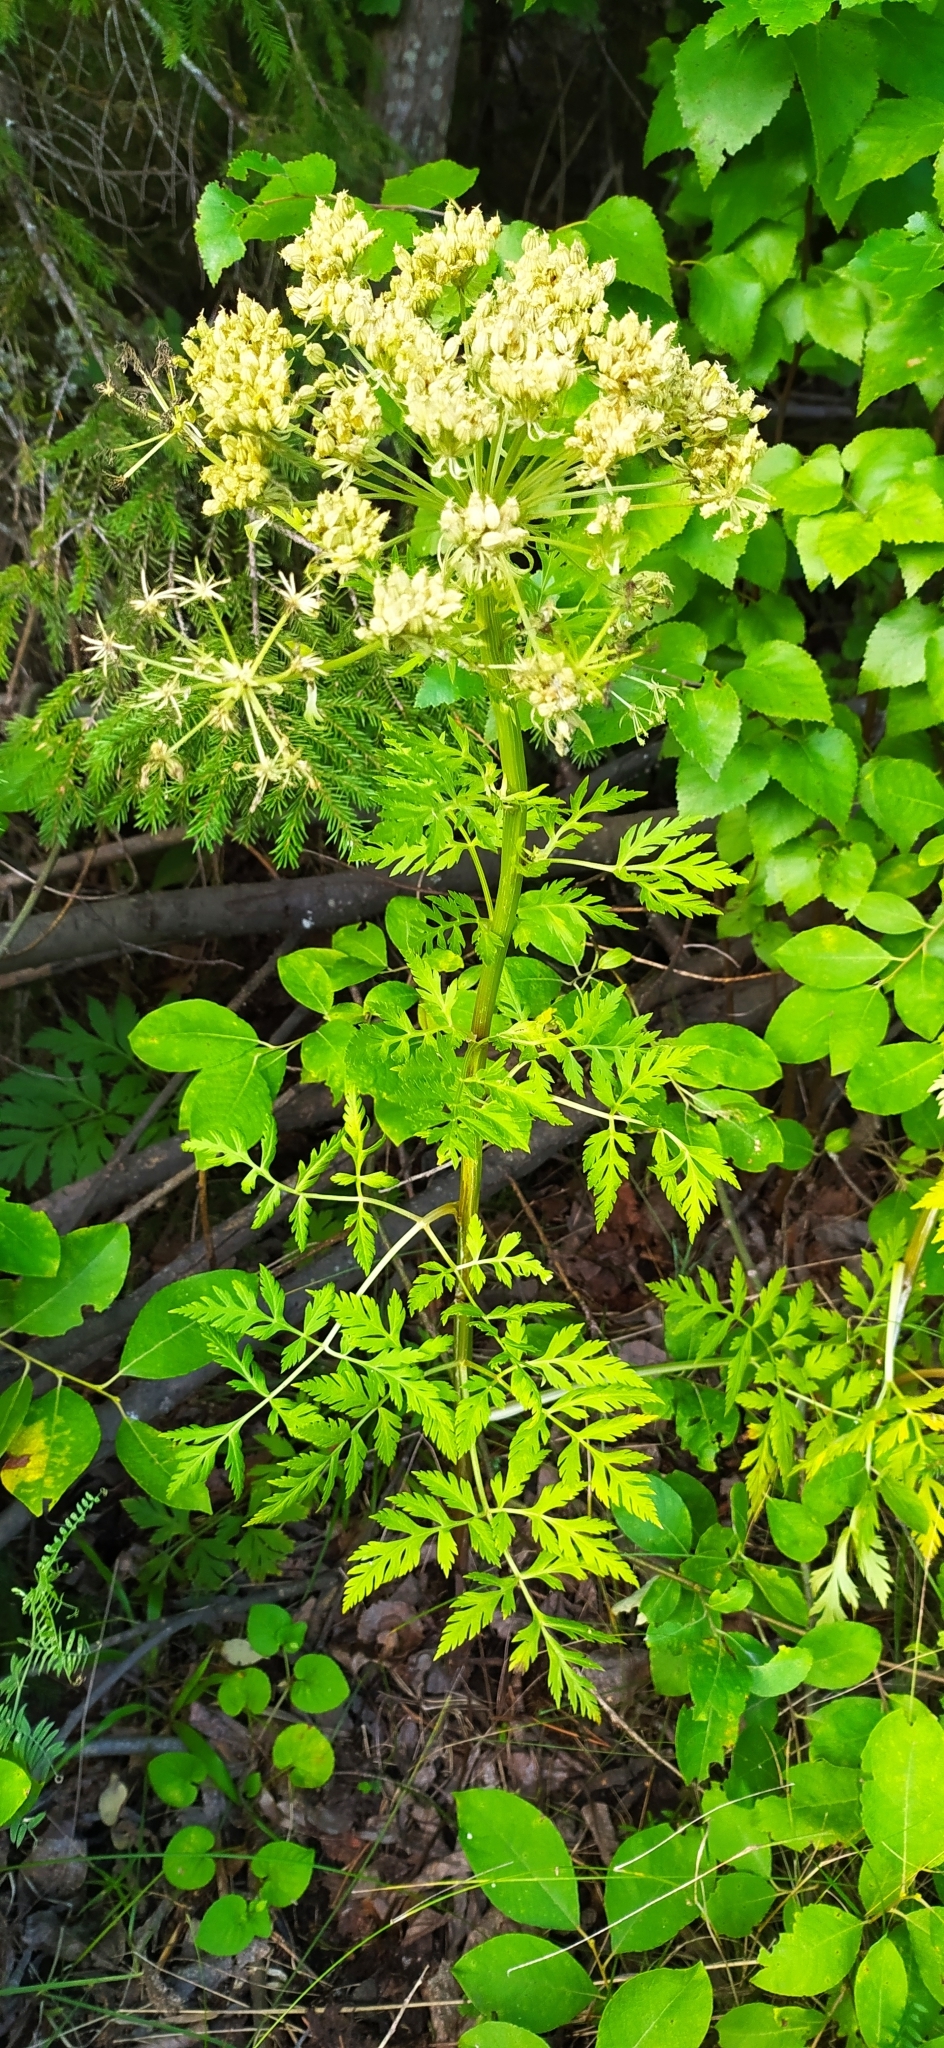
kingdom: Plantae
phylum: Tracheophyta
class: Magnoliopsida
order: Apiales
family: Apiaceae
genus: Pleurospermum
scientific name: Pleurospermum uralense
